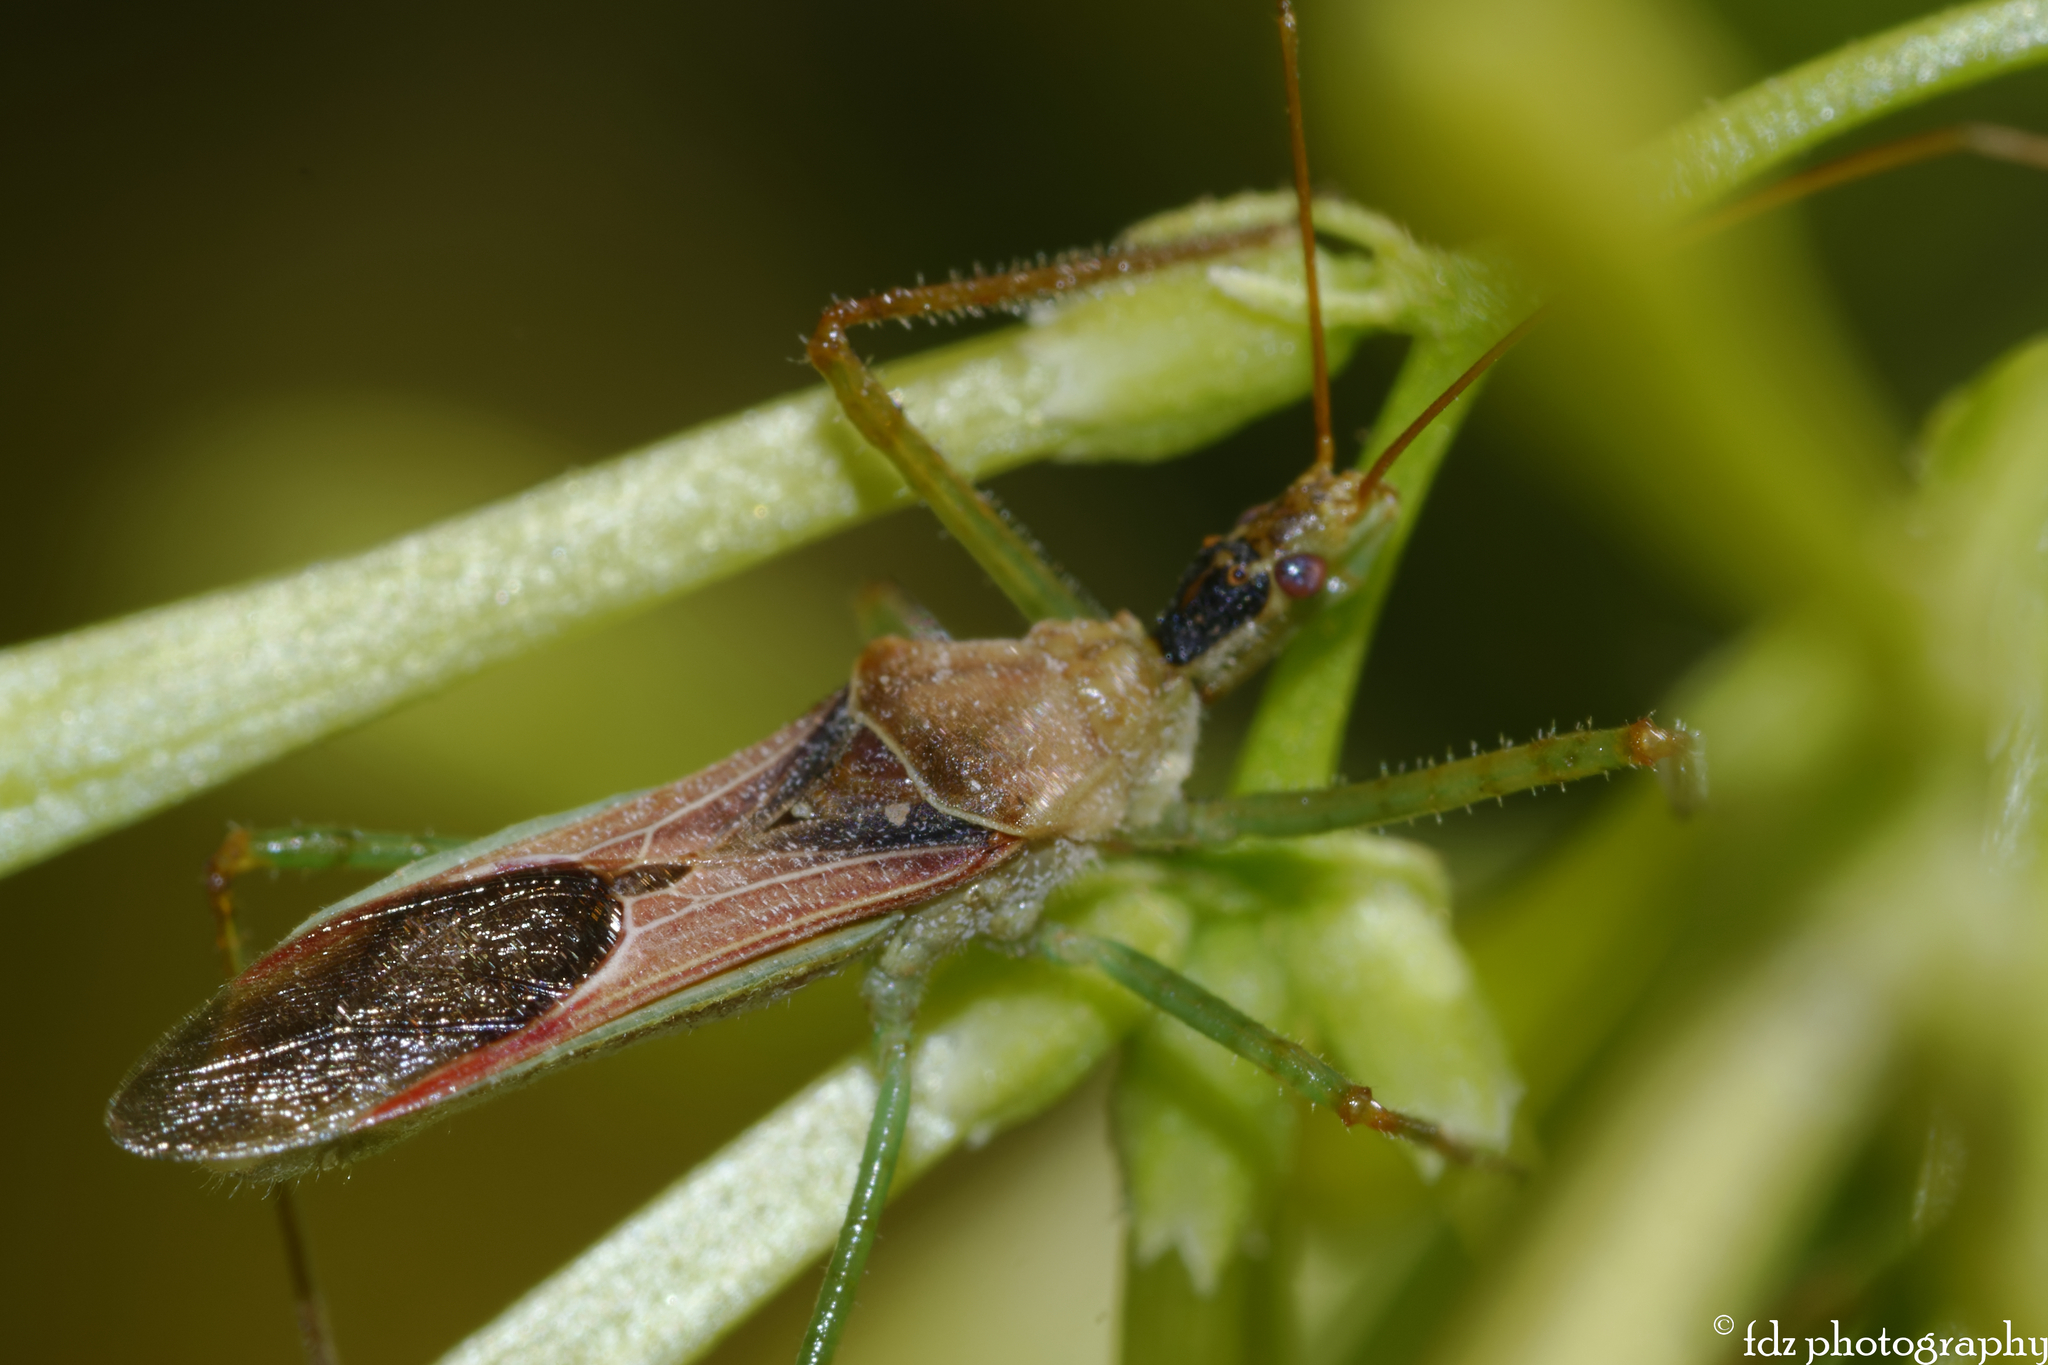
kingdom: Animalia
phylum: Arthropoda
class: Insecta
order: Hemiptera
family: Reduviidae
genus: Zelus
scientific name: Zelus renardii
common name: Assassin bug
